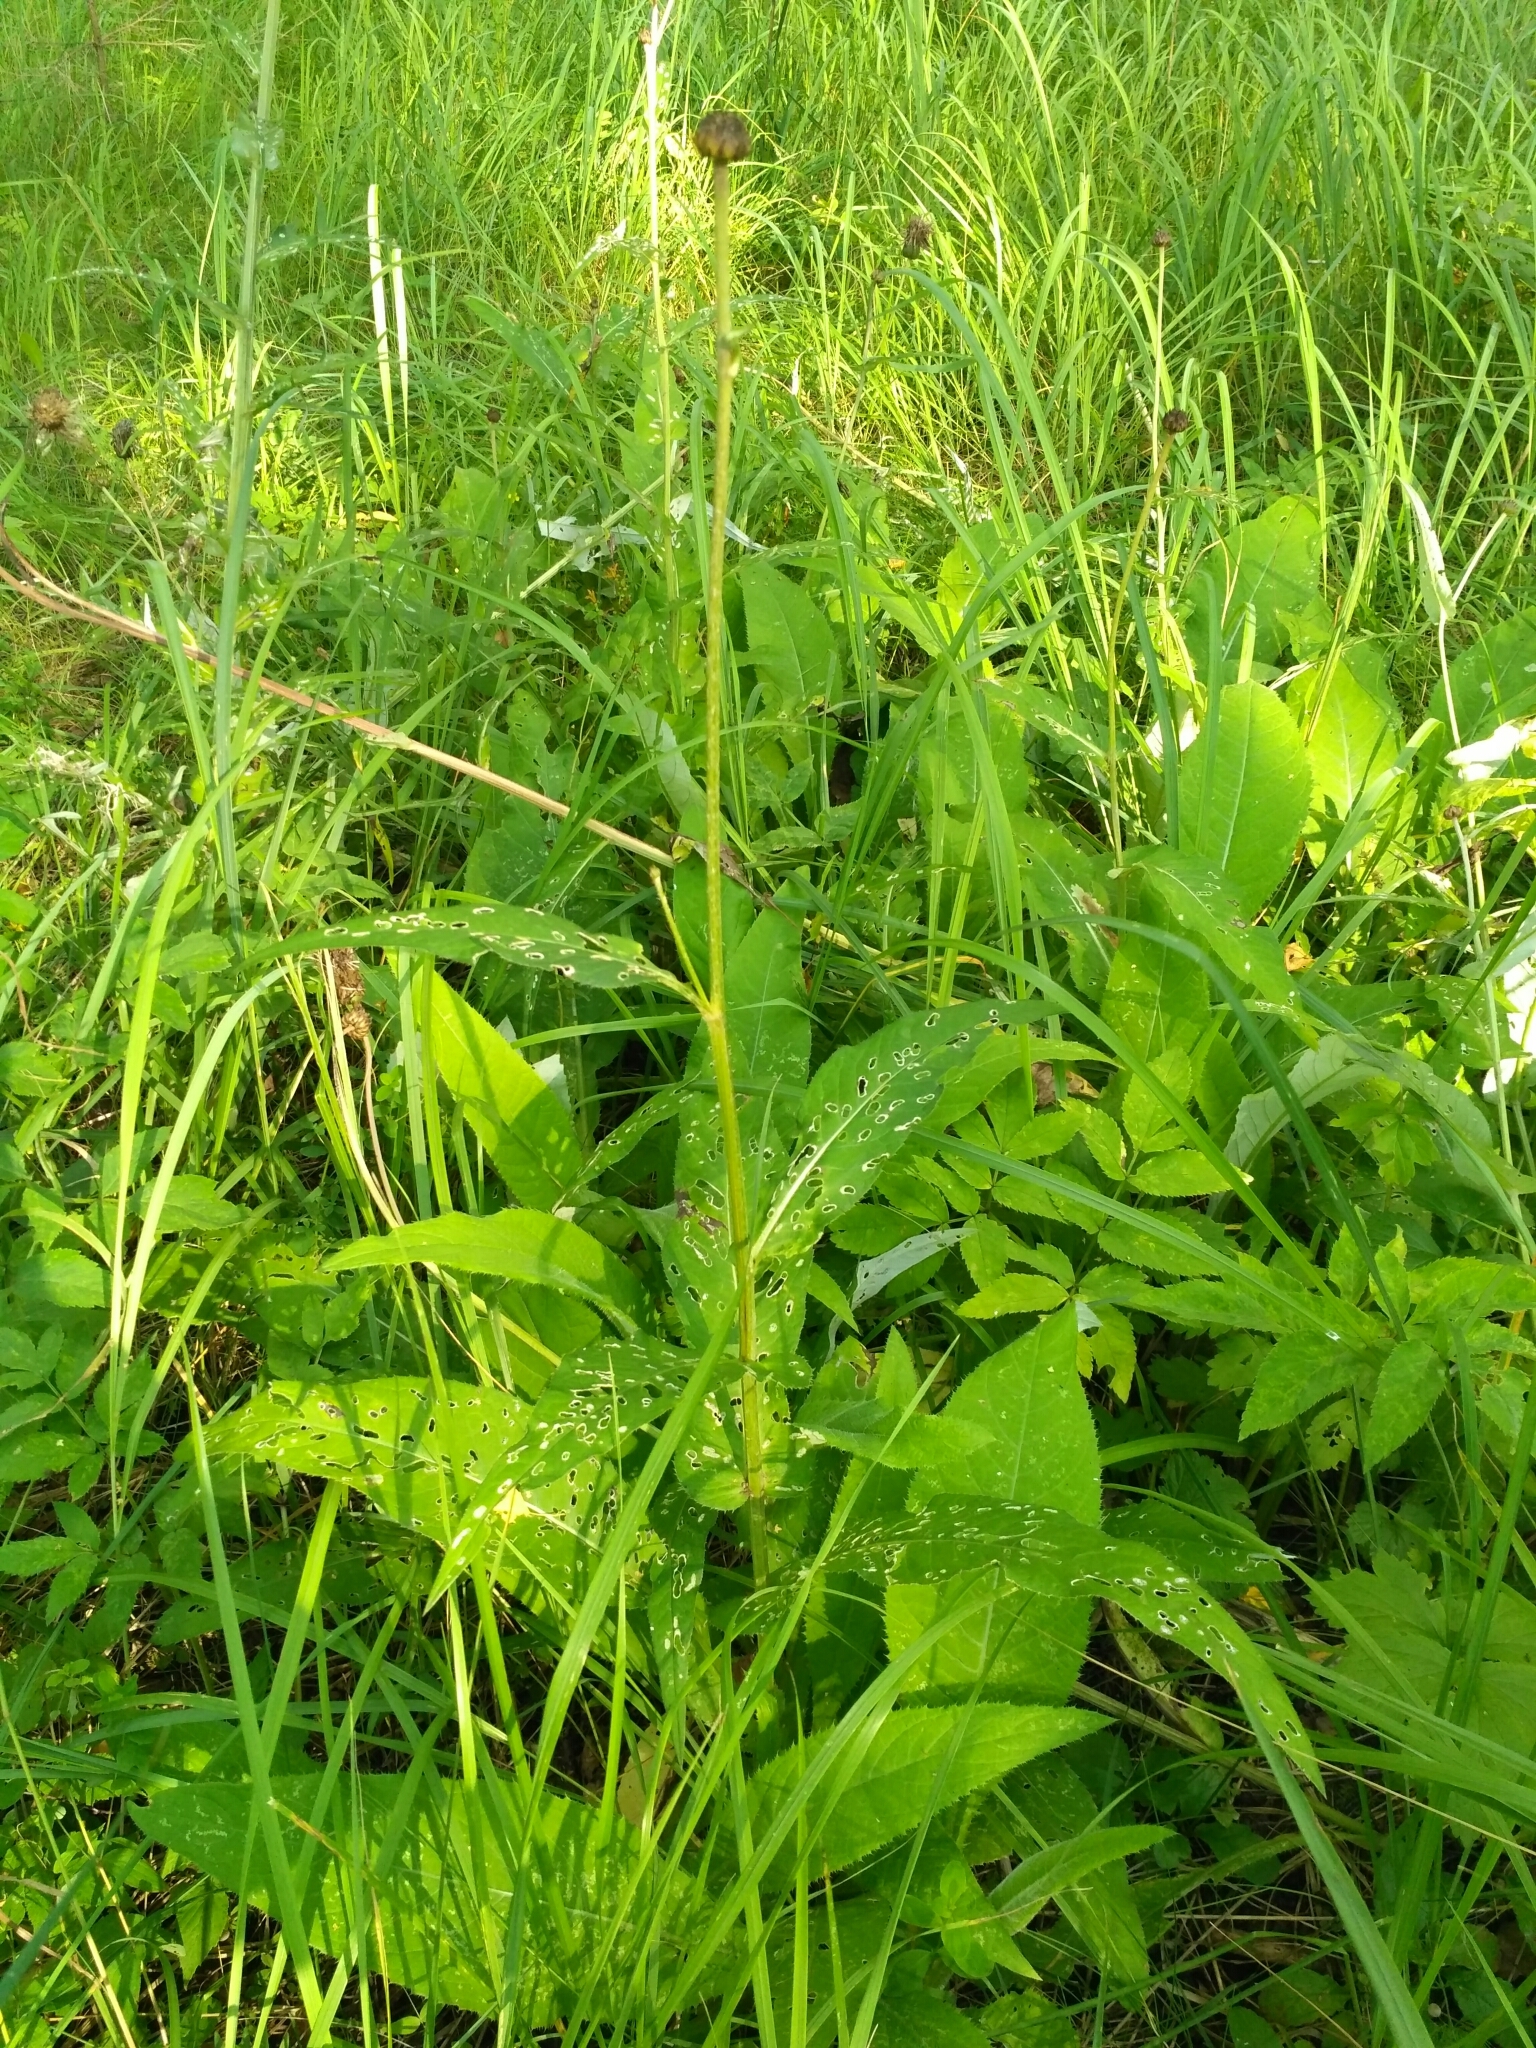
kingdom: Plantae
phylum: Tracheophyta
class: Magnoliopsida
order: Asterales
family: Asteraceae
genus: Cirsium
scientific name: Cirsium heterophyllum
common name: Melancholy thistle
